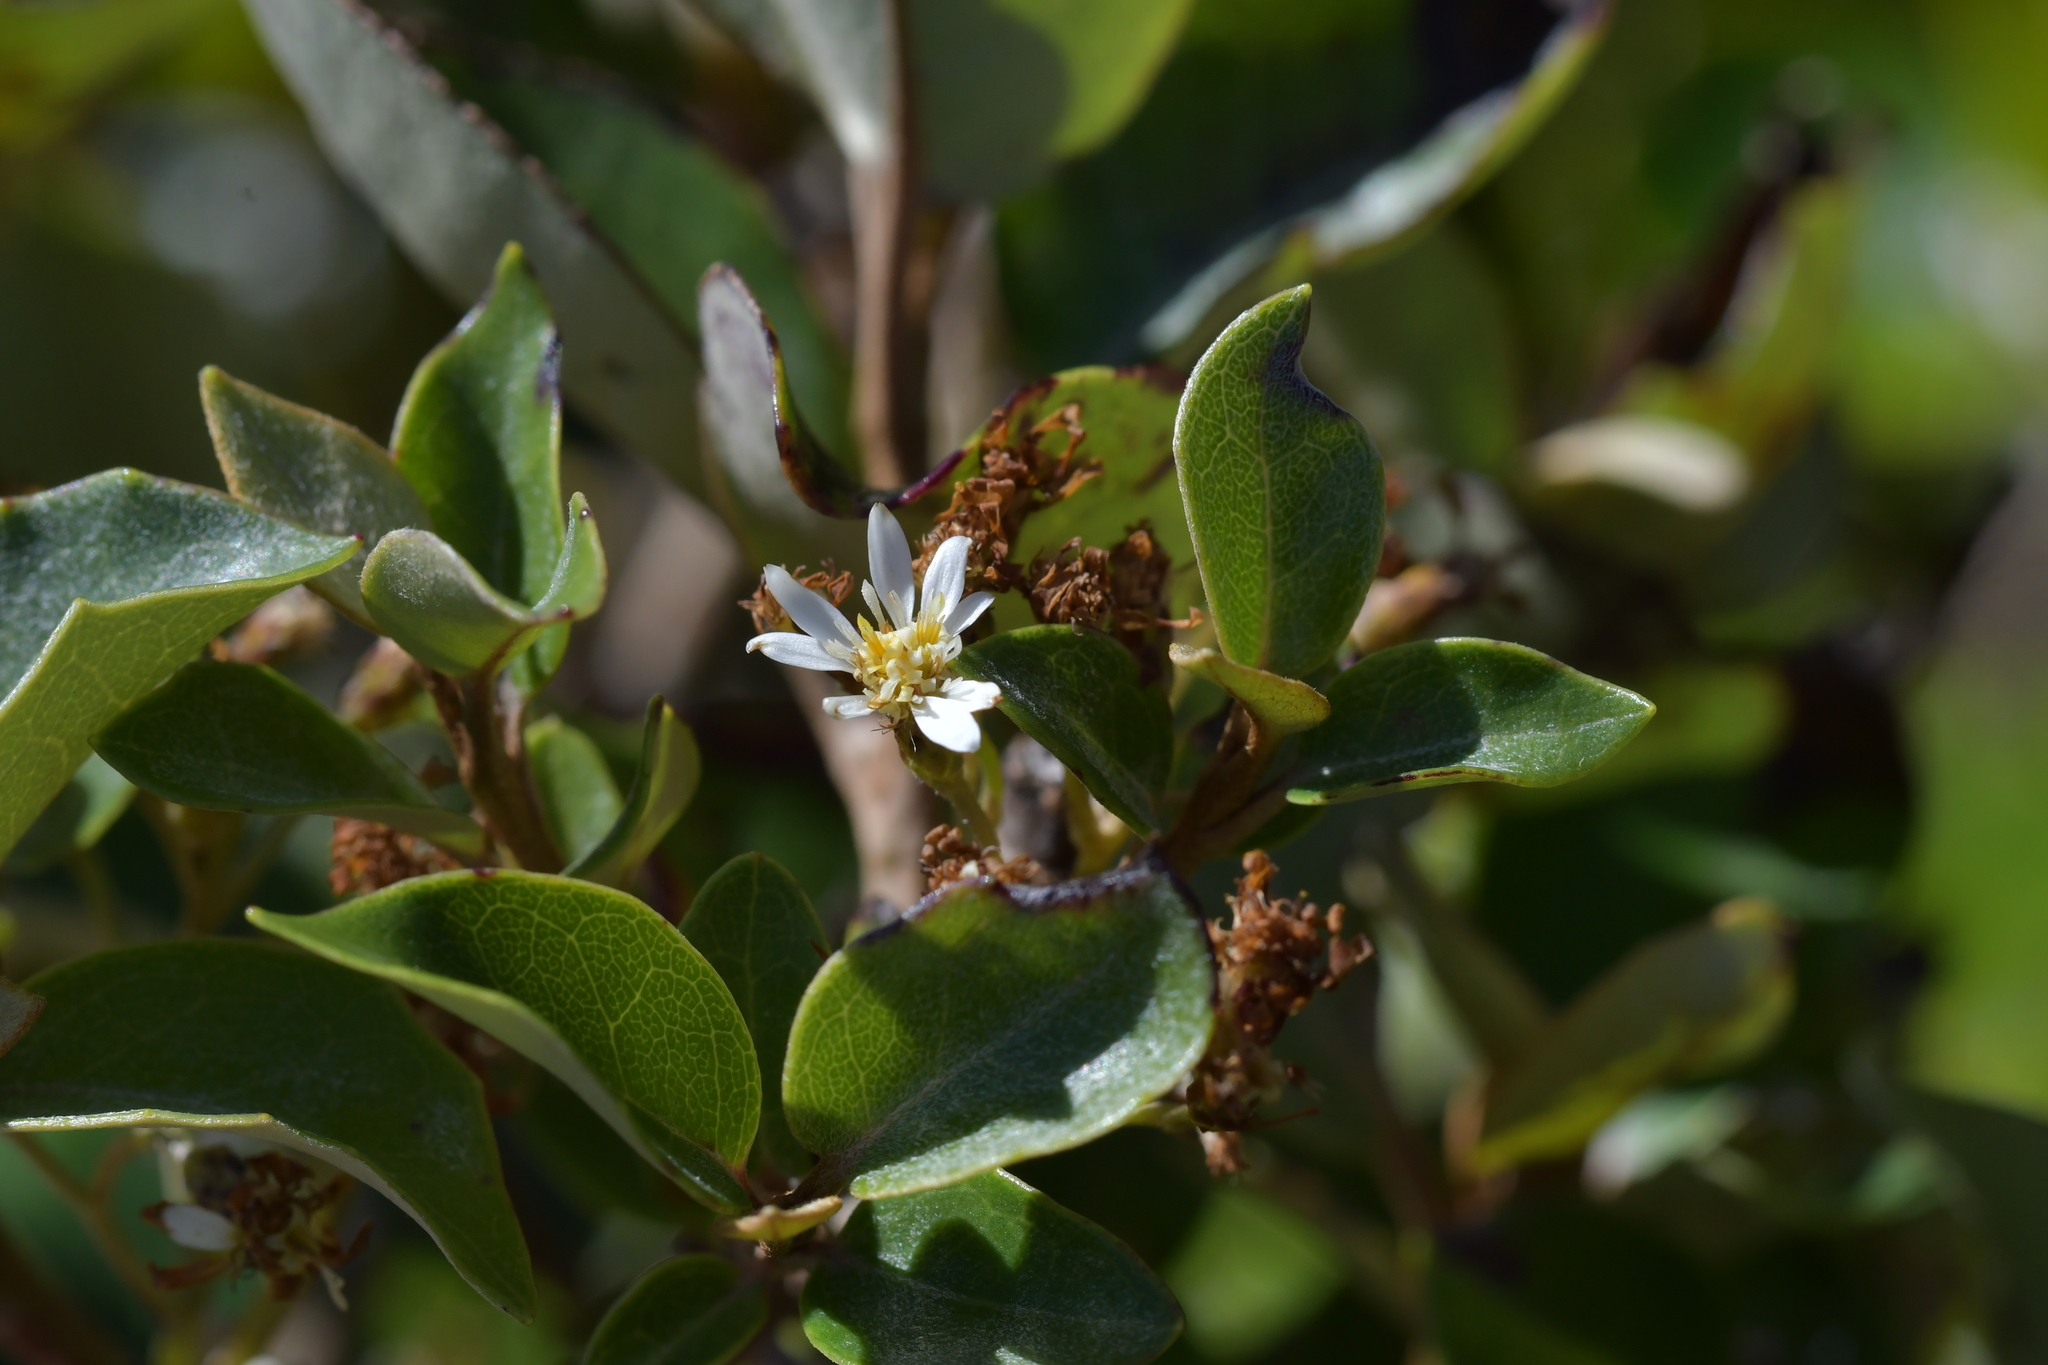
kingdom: Plantae
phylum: Tracheophyta
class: Magnoliopsida
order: Asterales
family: Asteraceae
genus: Olearia
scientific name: Olearia arborescens
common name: Glossy tree daisy
